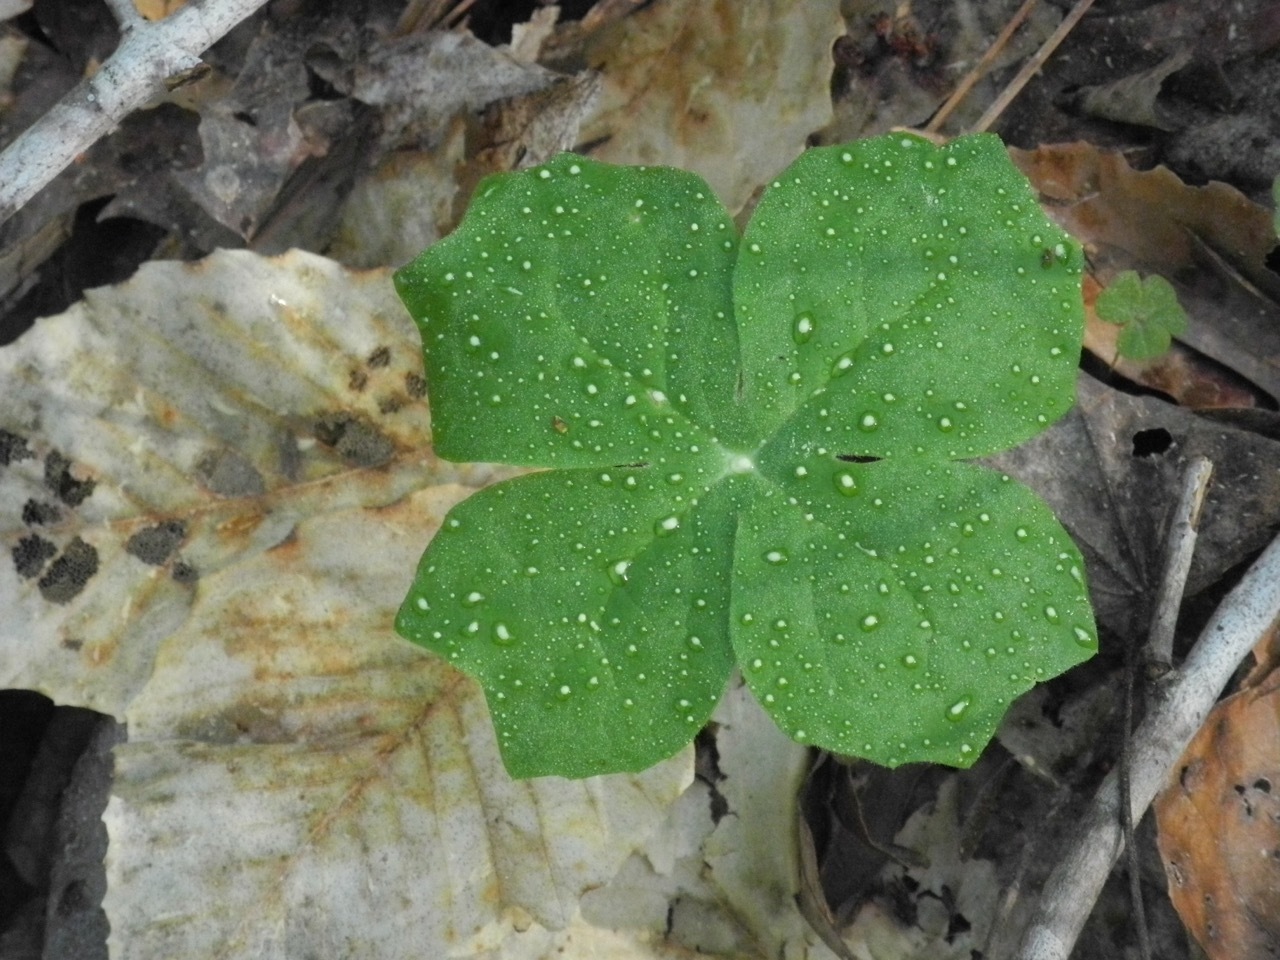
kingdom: Plantae
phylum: Tracheophyta
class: Magnoliopsida
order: Ranunculales
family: Berberidaceae
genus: Podophyllum
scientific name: Podophyllum peltatum
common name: Wild mandrake
